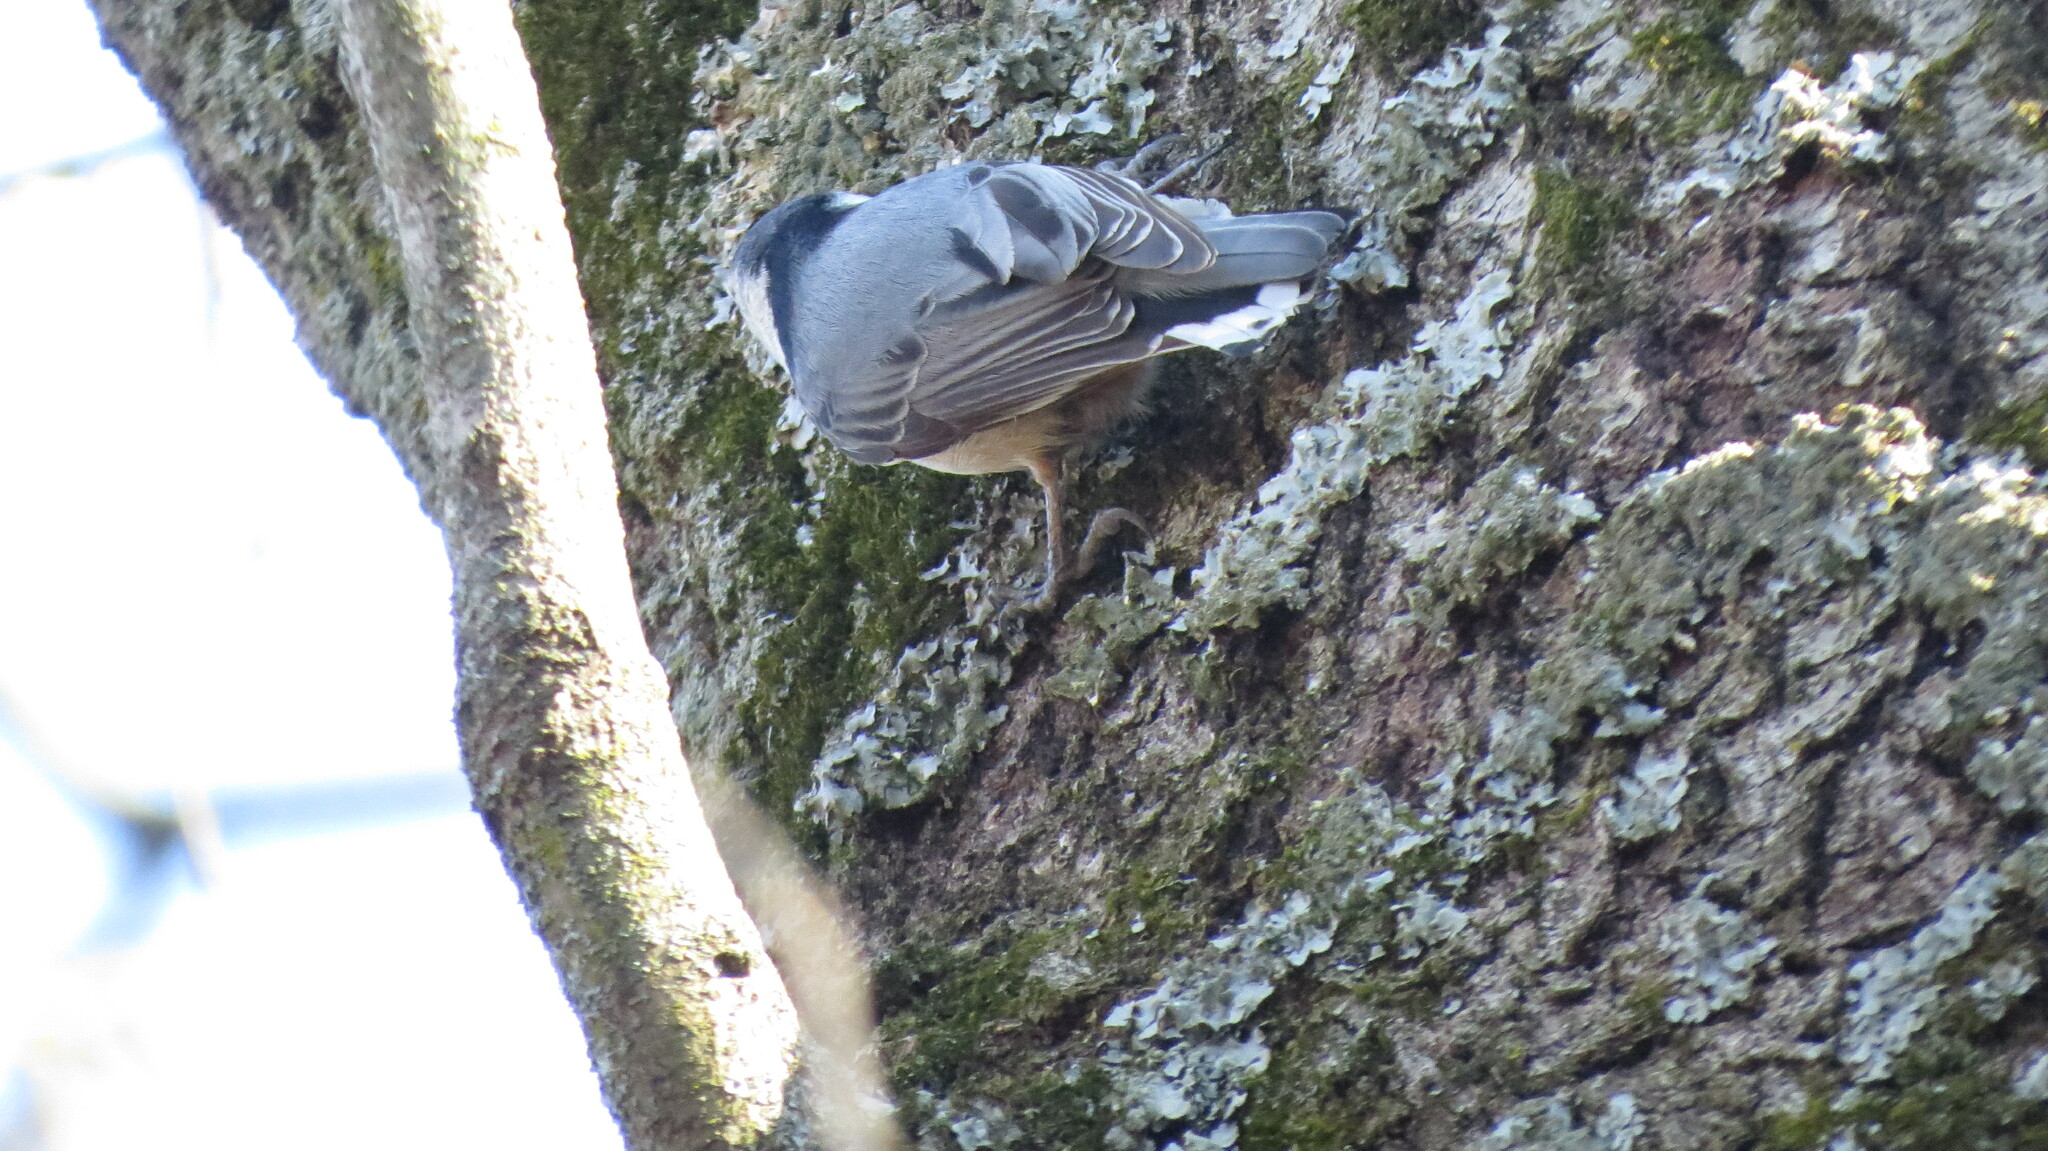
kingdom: Animalia
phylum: Chordata
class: Aves
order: Passeriformes
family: Sittidae
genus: Sitta
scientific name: Sitta carolinensis
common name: White-breasted nuthatch
